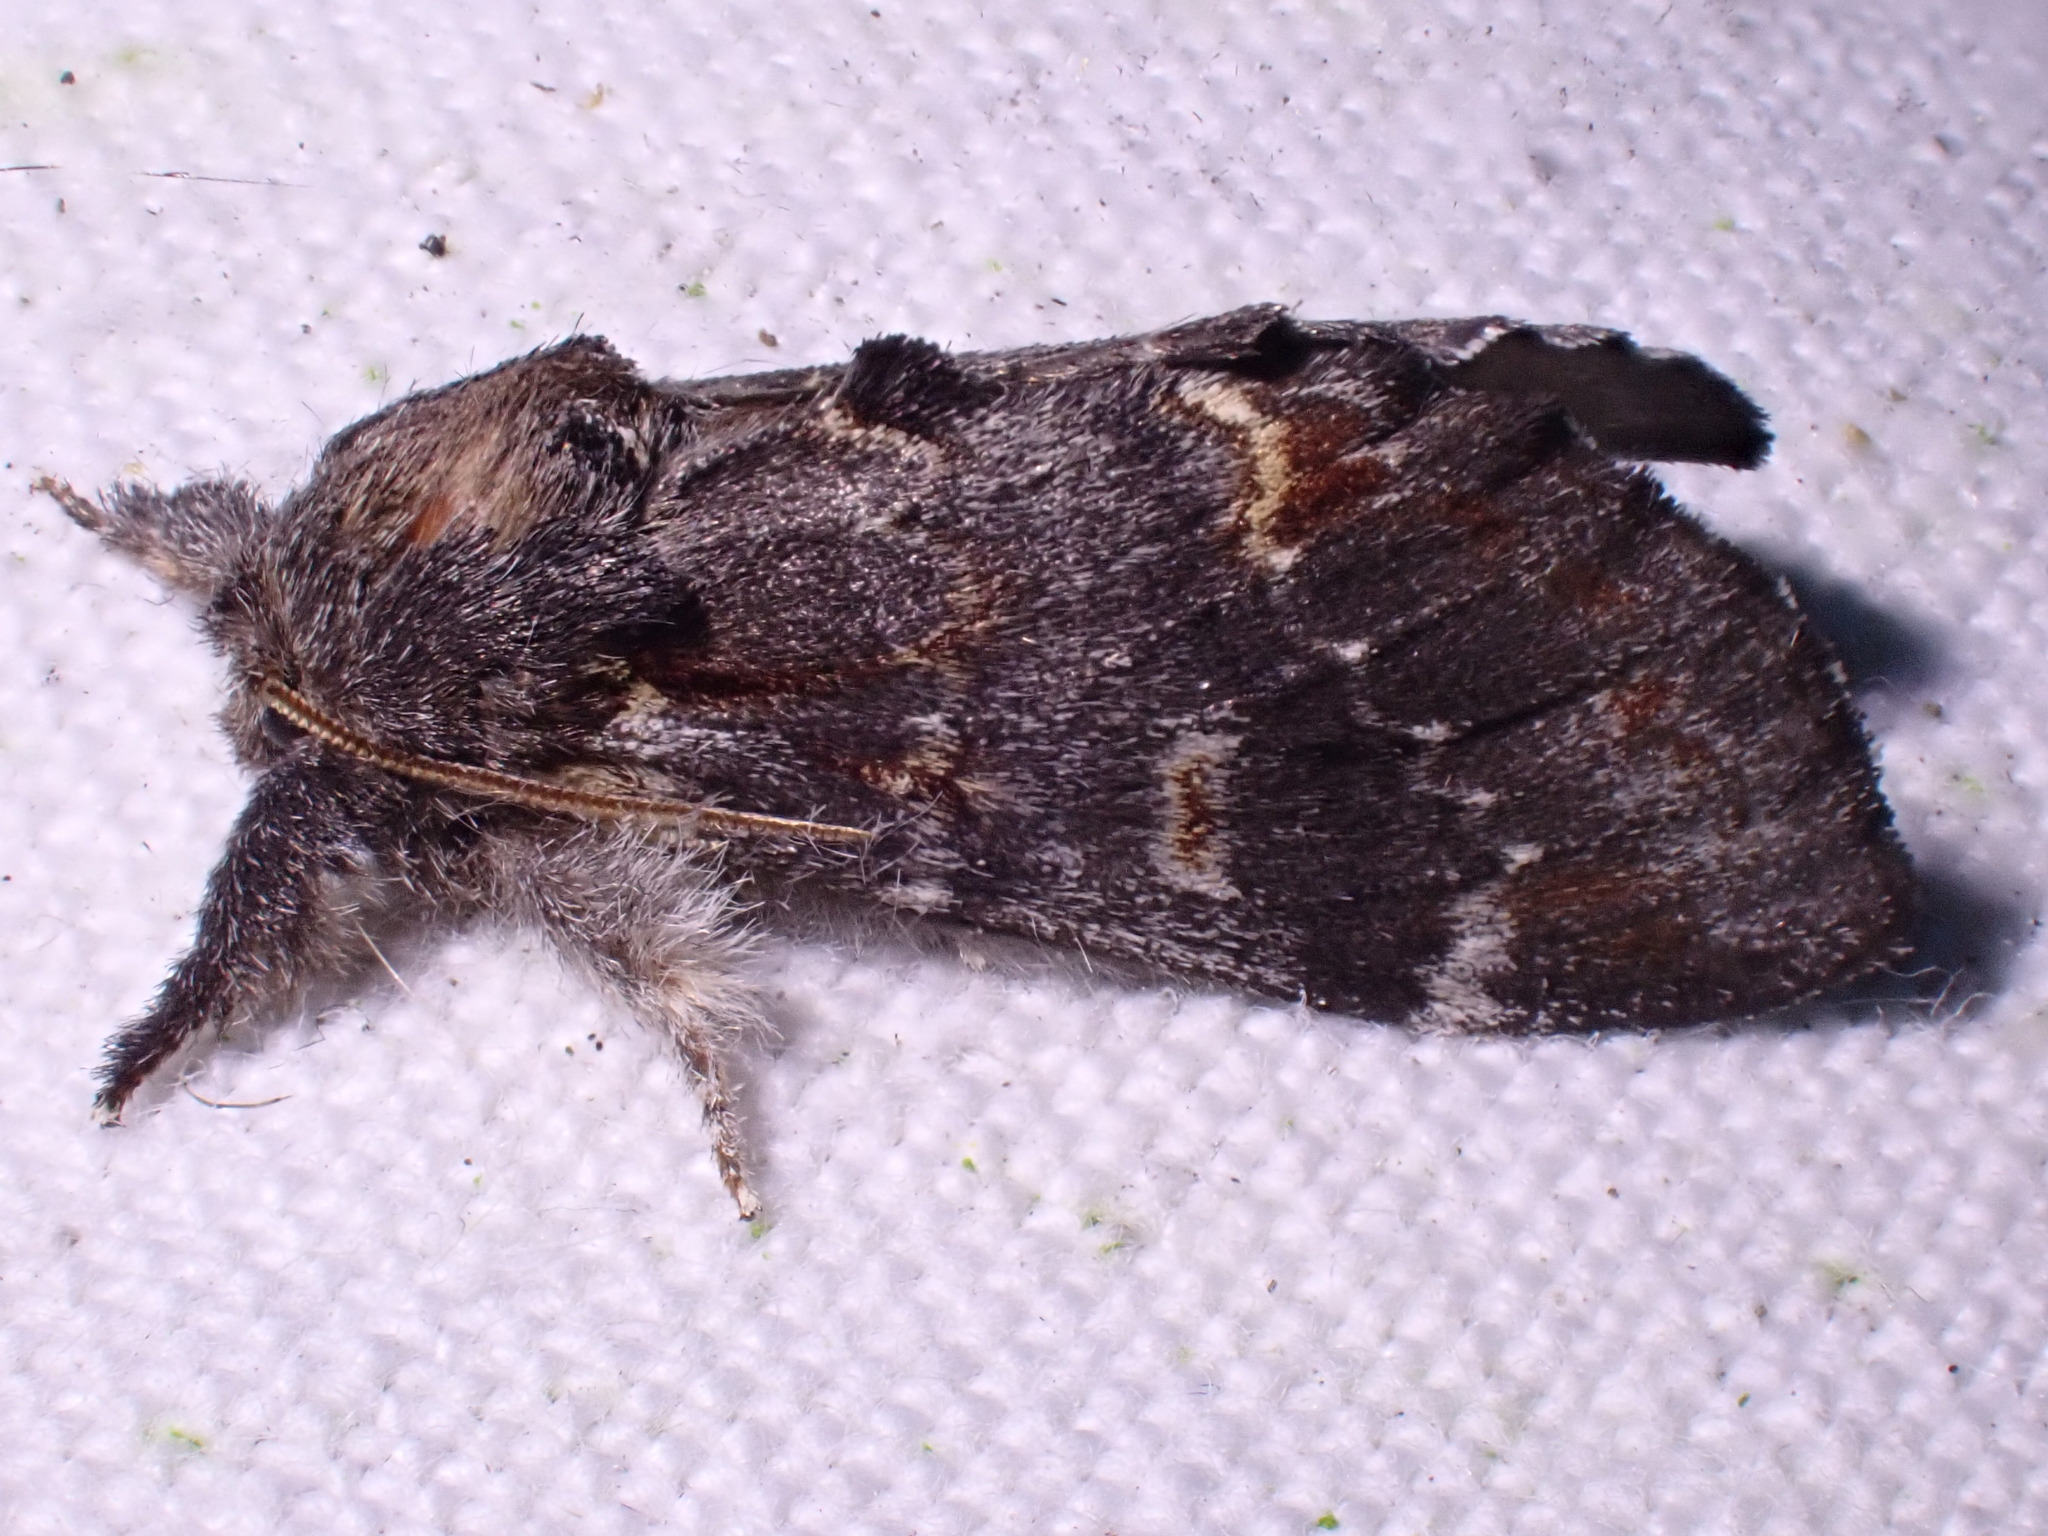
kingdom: Animalia
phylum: Arthropoda
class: Insecta
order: Lepidoptera
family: Notodontidae
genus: Notodonta
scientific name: Notodonta dromedarius
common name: Iron prominent
